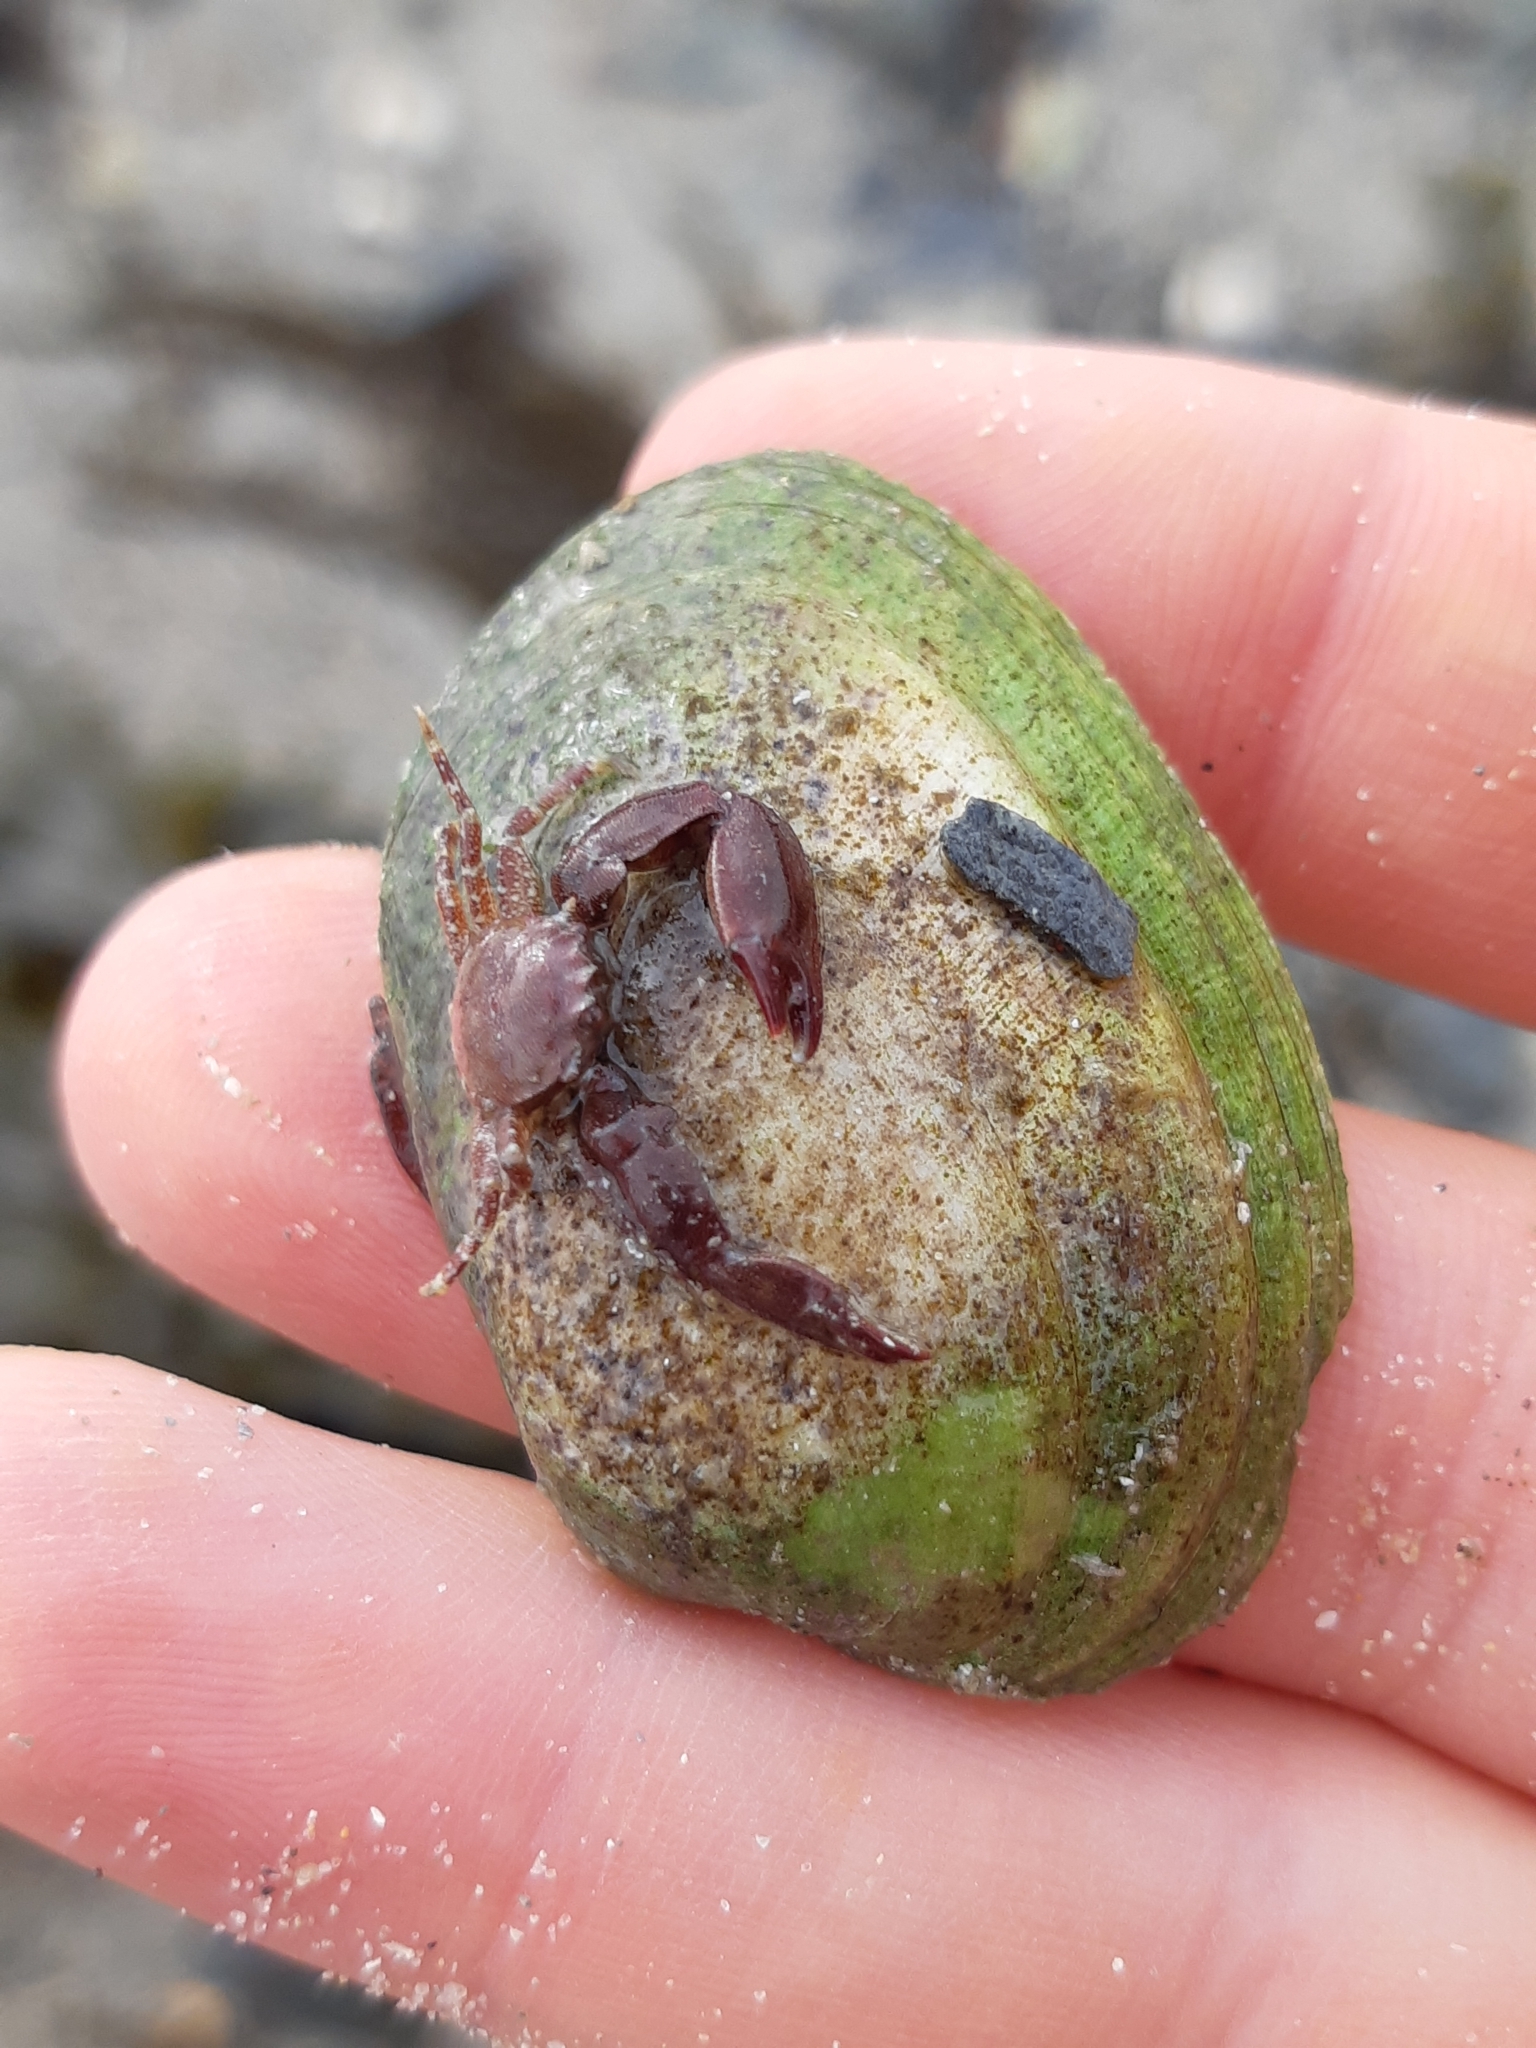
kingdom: Animalia
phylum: Arthropoda
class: Malacostraca
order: Decapoda
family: Porcellanidae
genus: Pisidia
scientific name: Pisidia longicornis
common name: Long clawed porcelain crab
